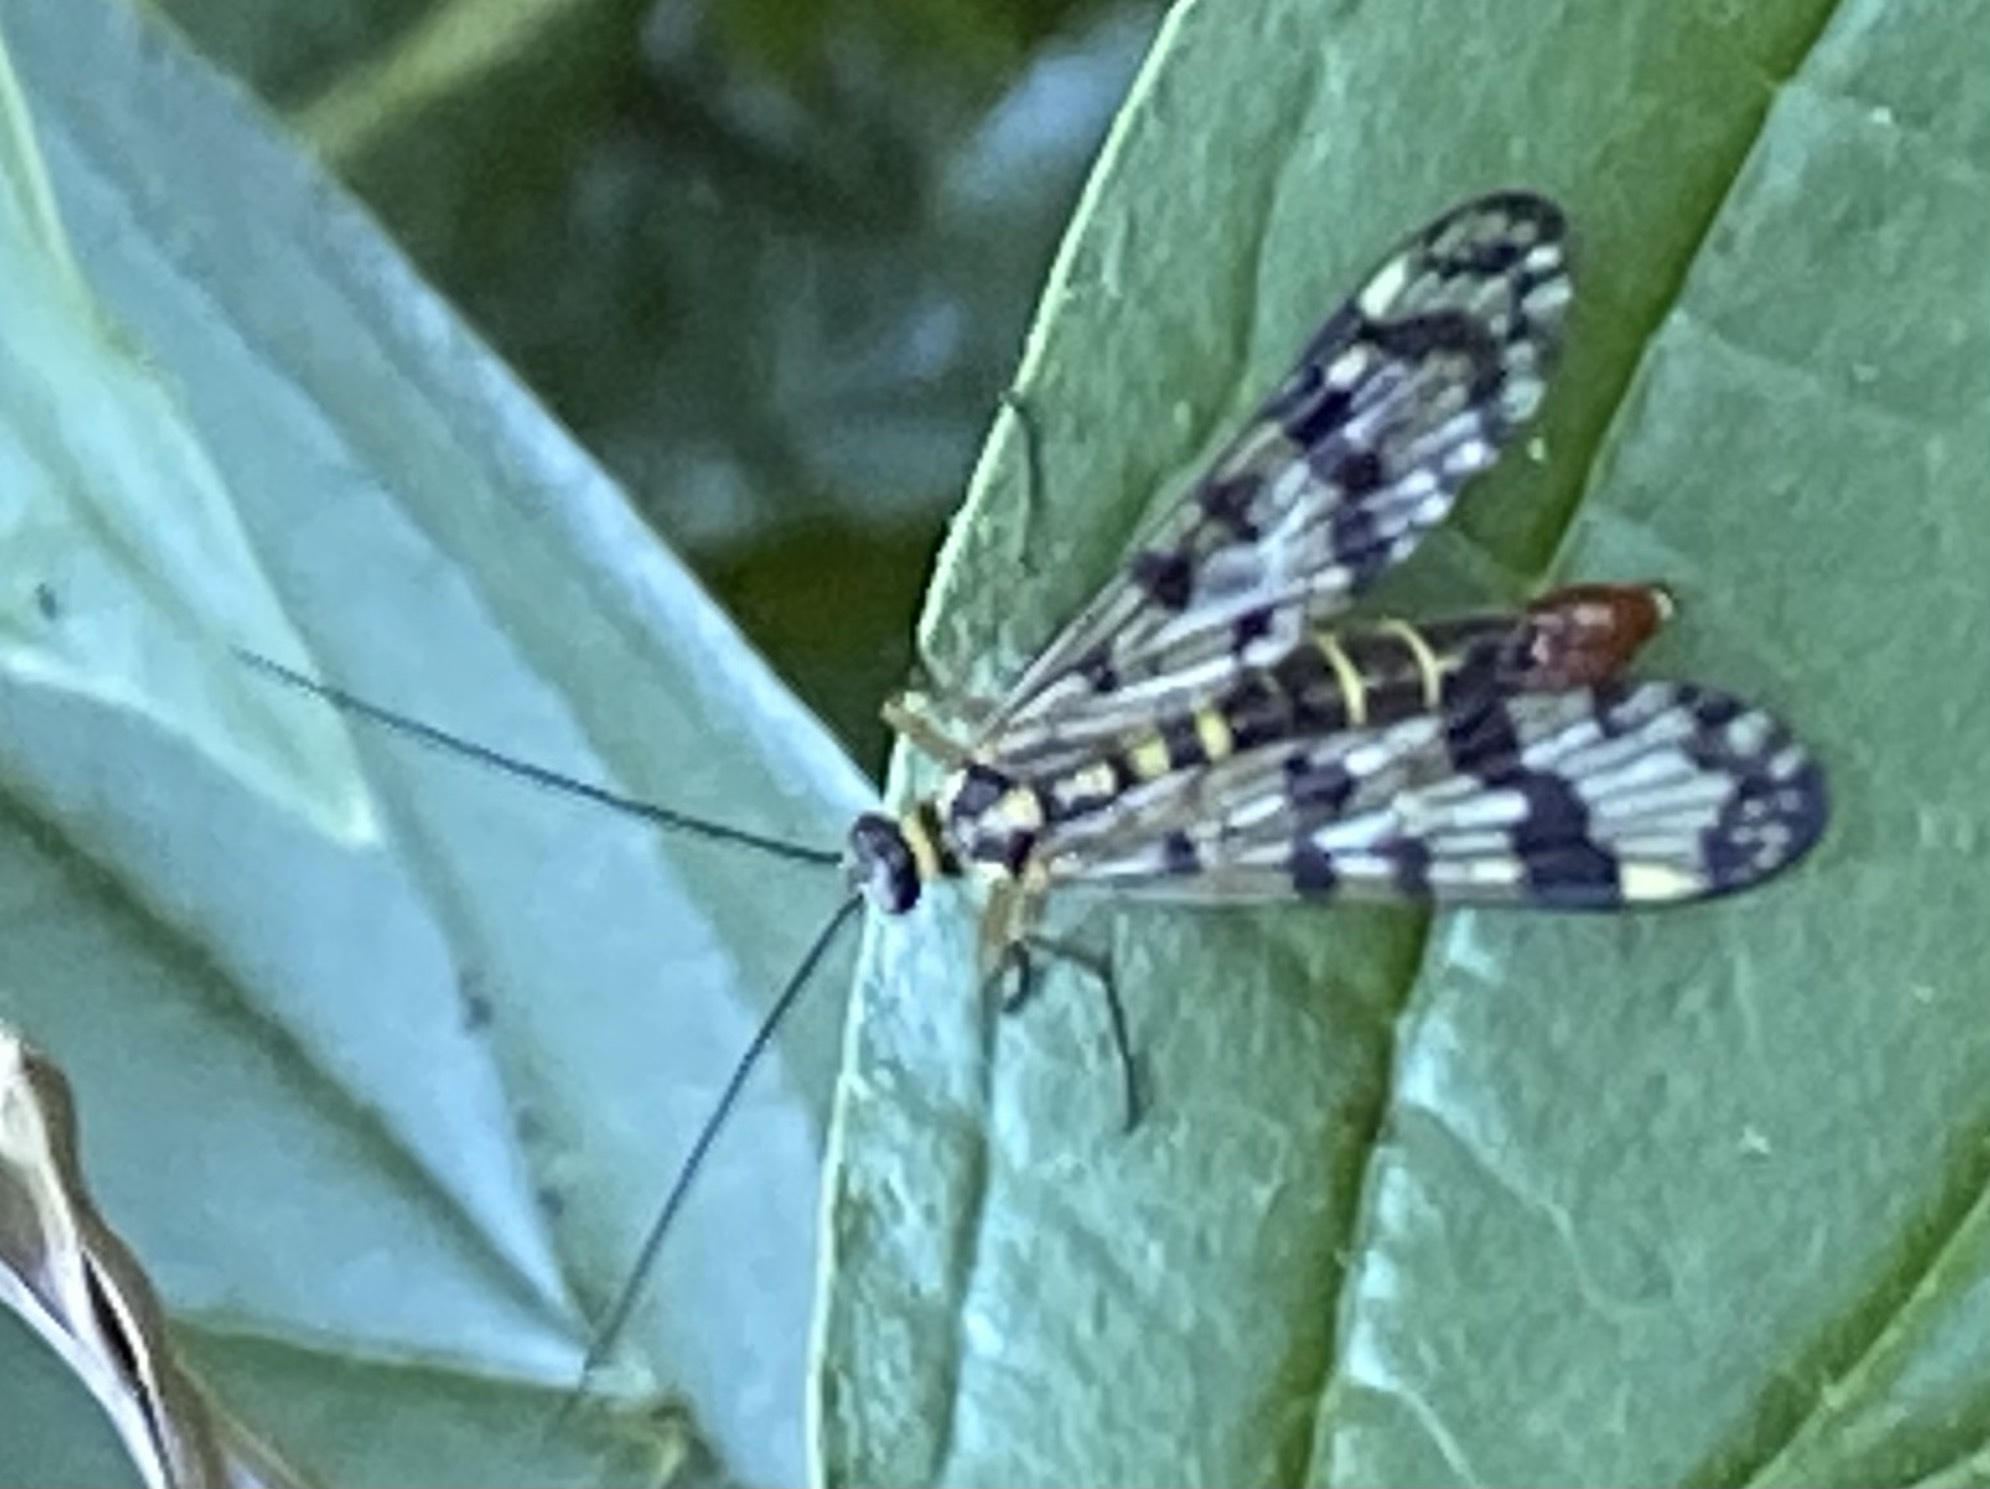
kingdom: Animalia
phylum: Arthropoda
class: Insecta
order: Mecoptera
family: Panorpidae
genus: Panorpa
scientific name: Panorpa communis
